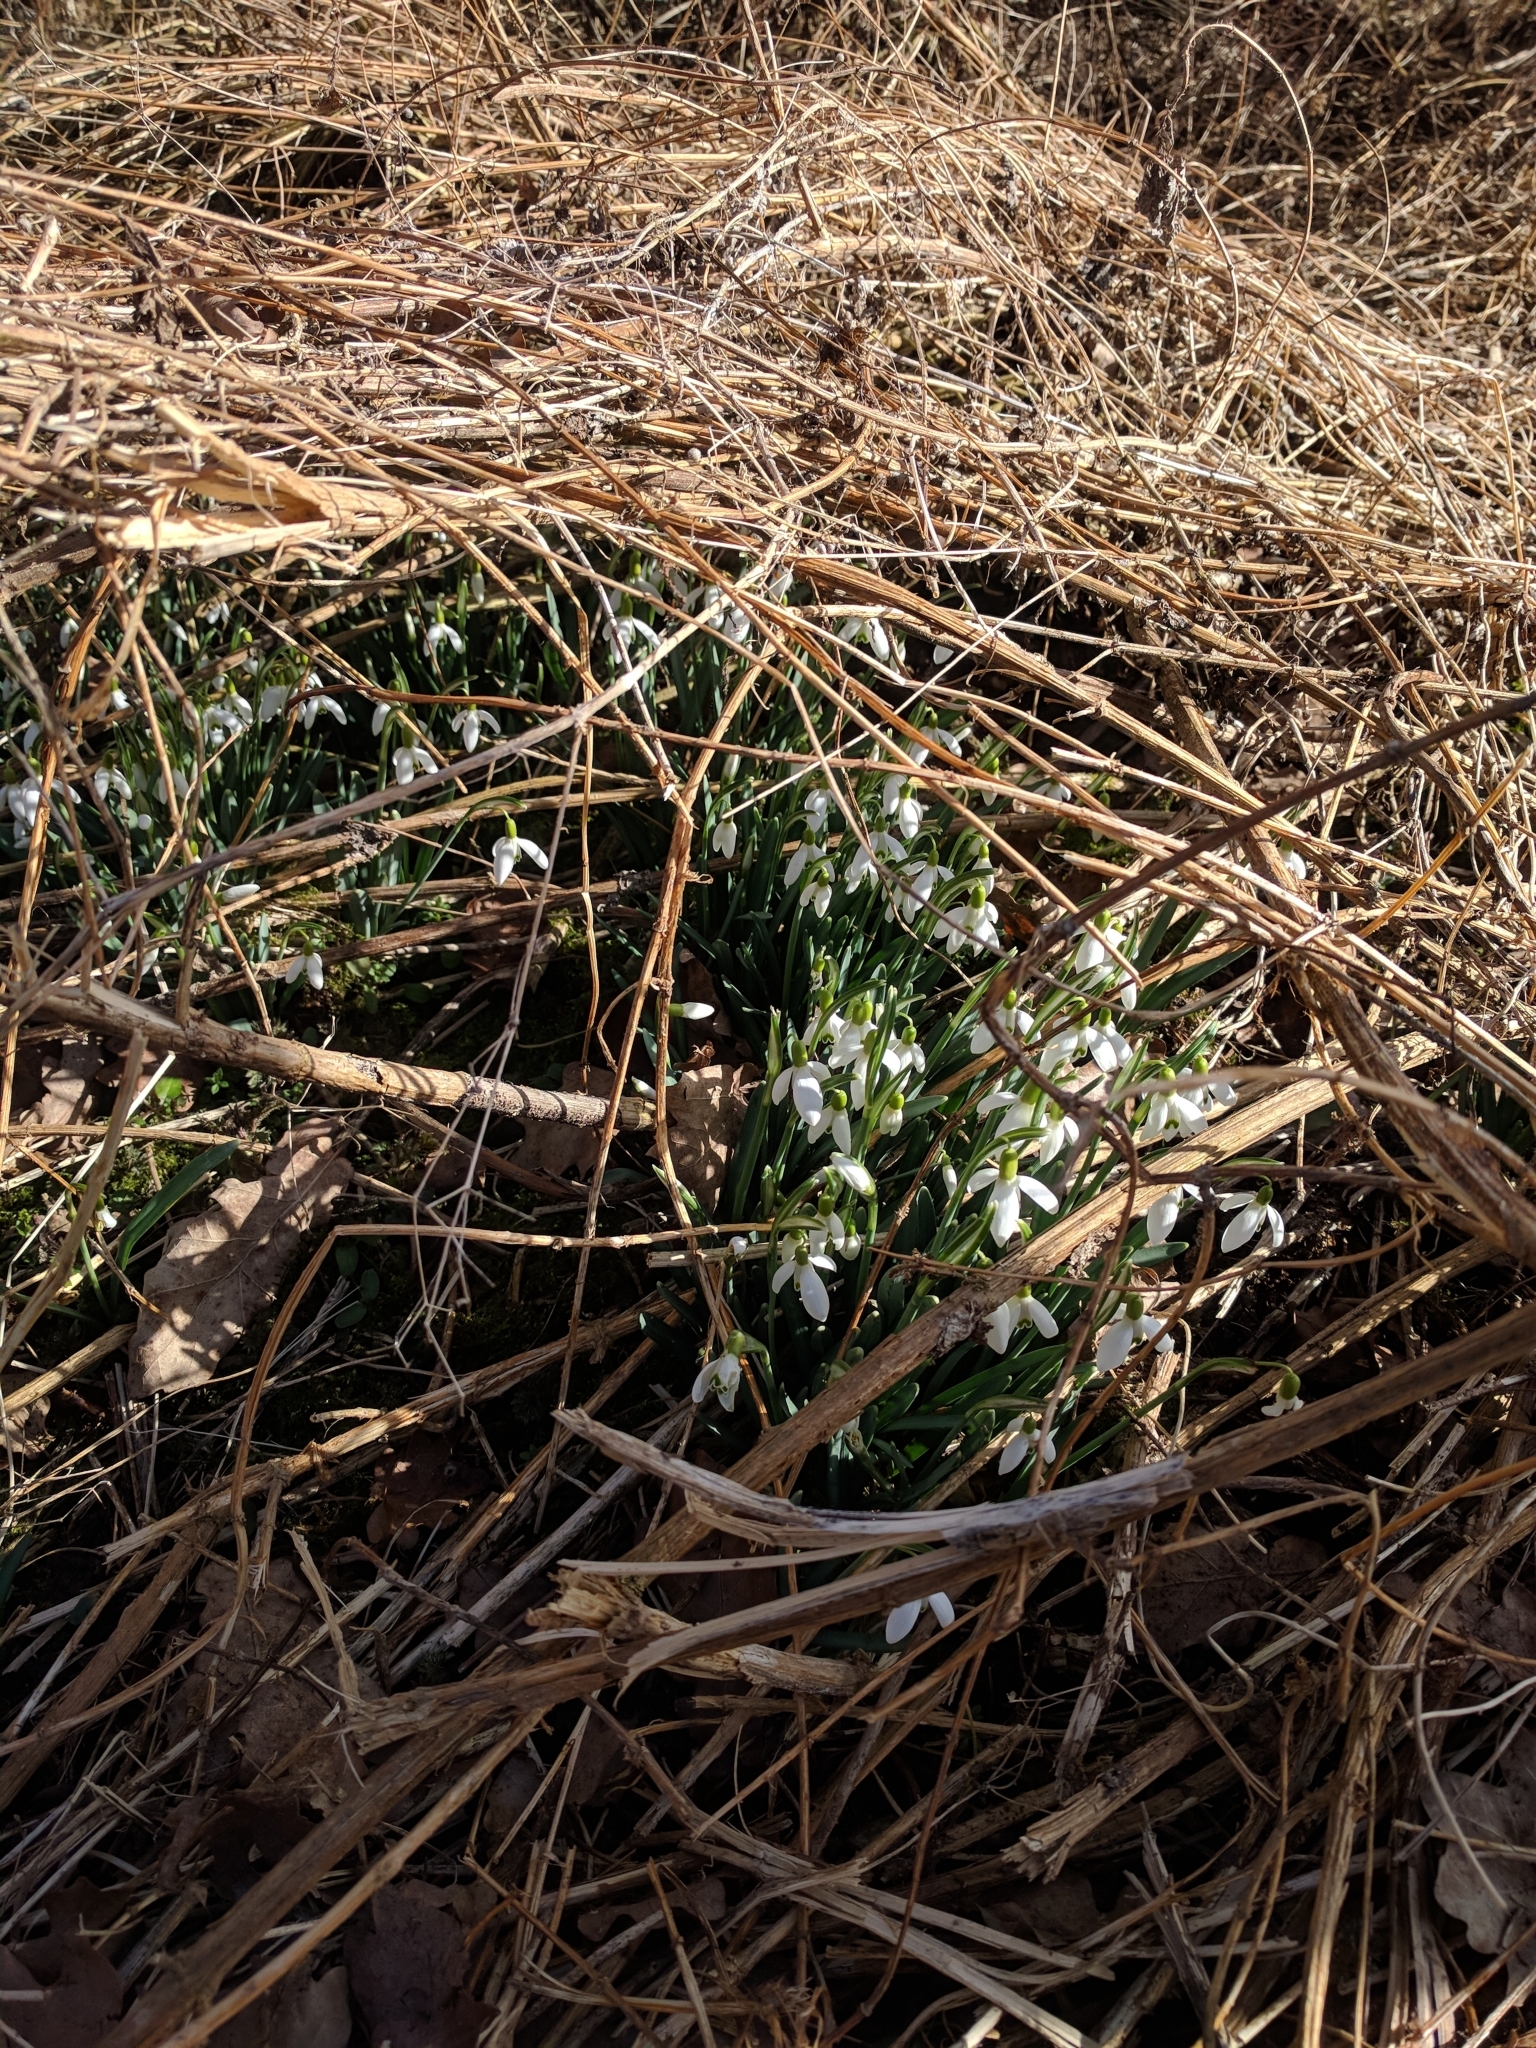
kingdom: Plantae
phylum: Tracheophyta
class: Liliopsida
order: Asparagales
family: Amaryllidaceae
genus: Galanthus
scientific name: Galanthus nivalis
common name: Snowdrop
